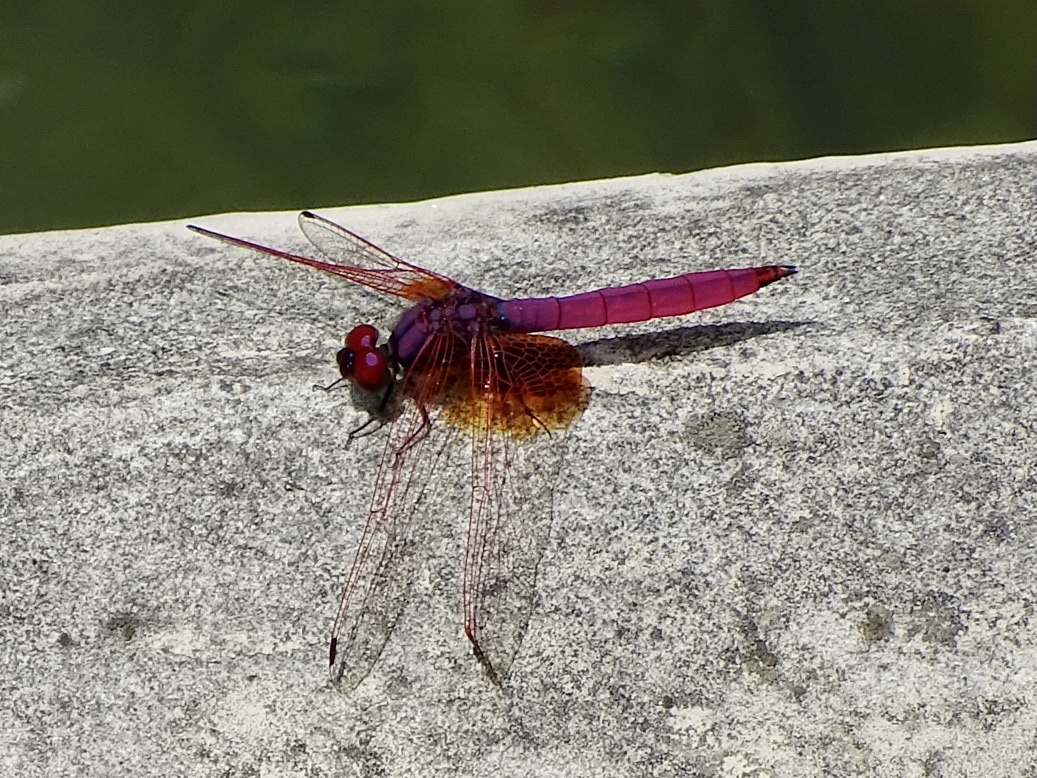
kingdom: Animalia
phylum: Arthropoda
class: Insecta
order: Odonata
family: Libellulidae
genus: Trithemis
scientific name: Trithemis aurora
